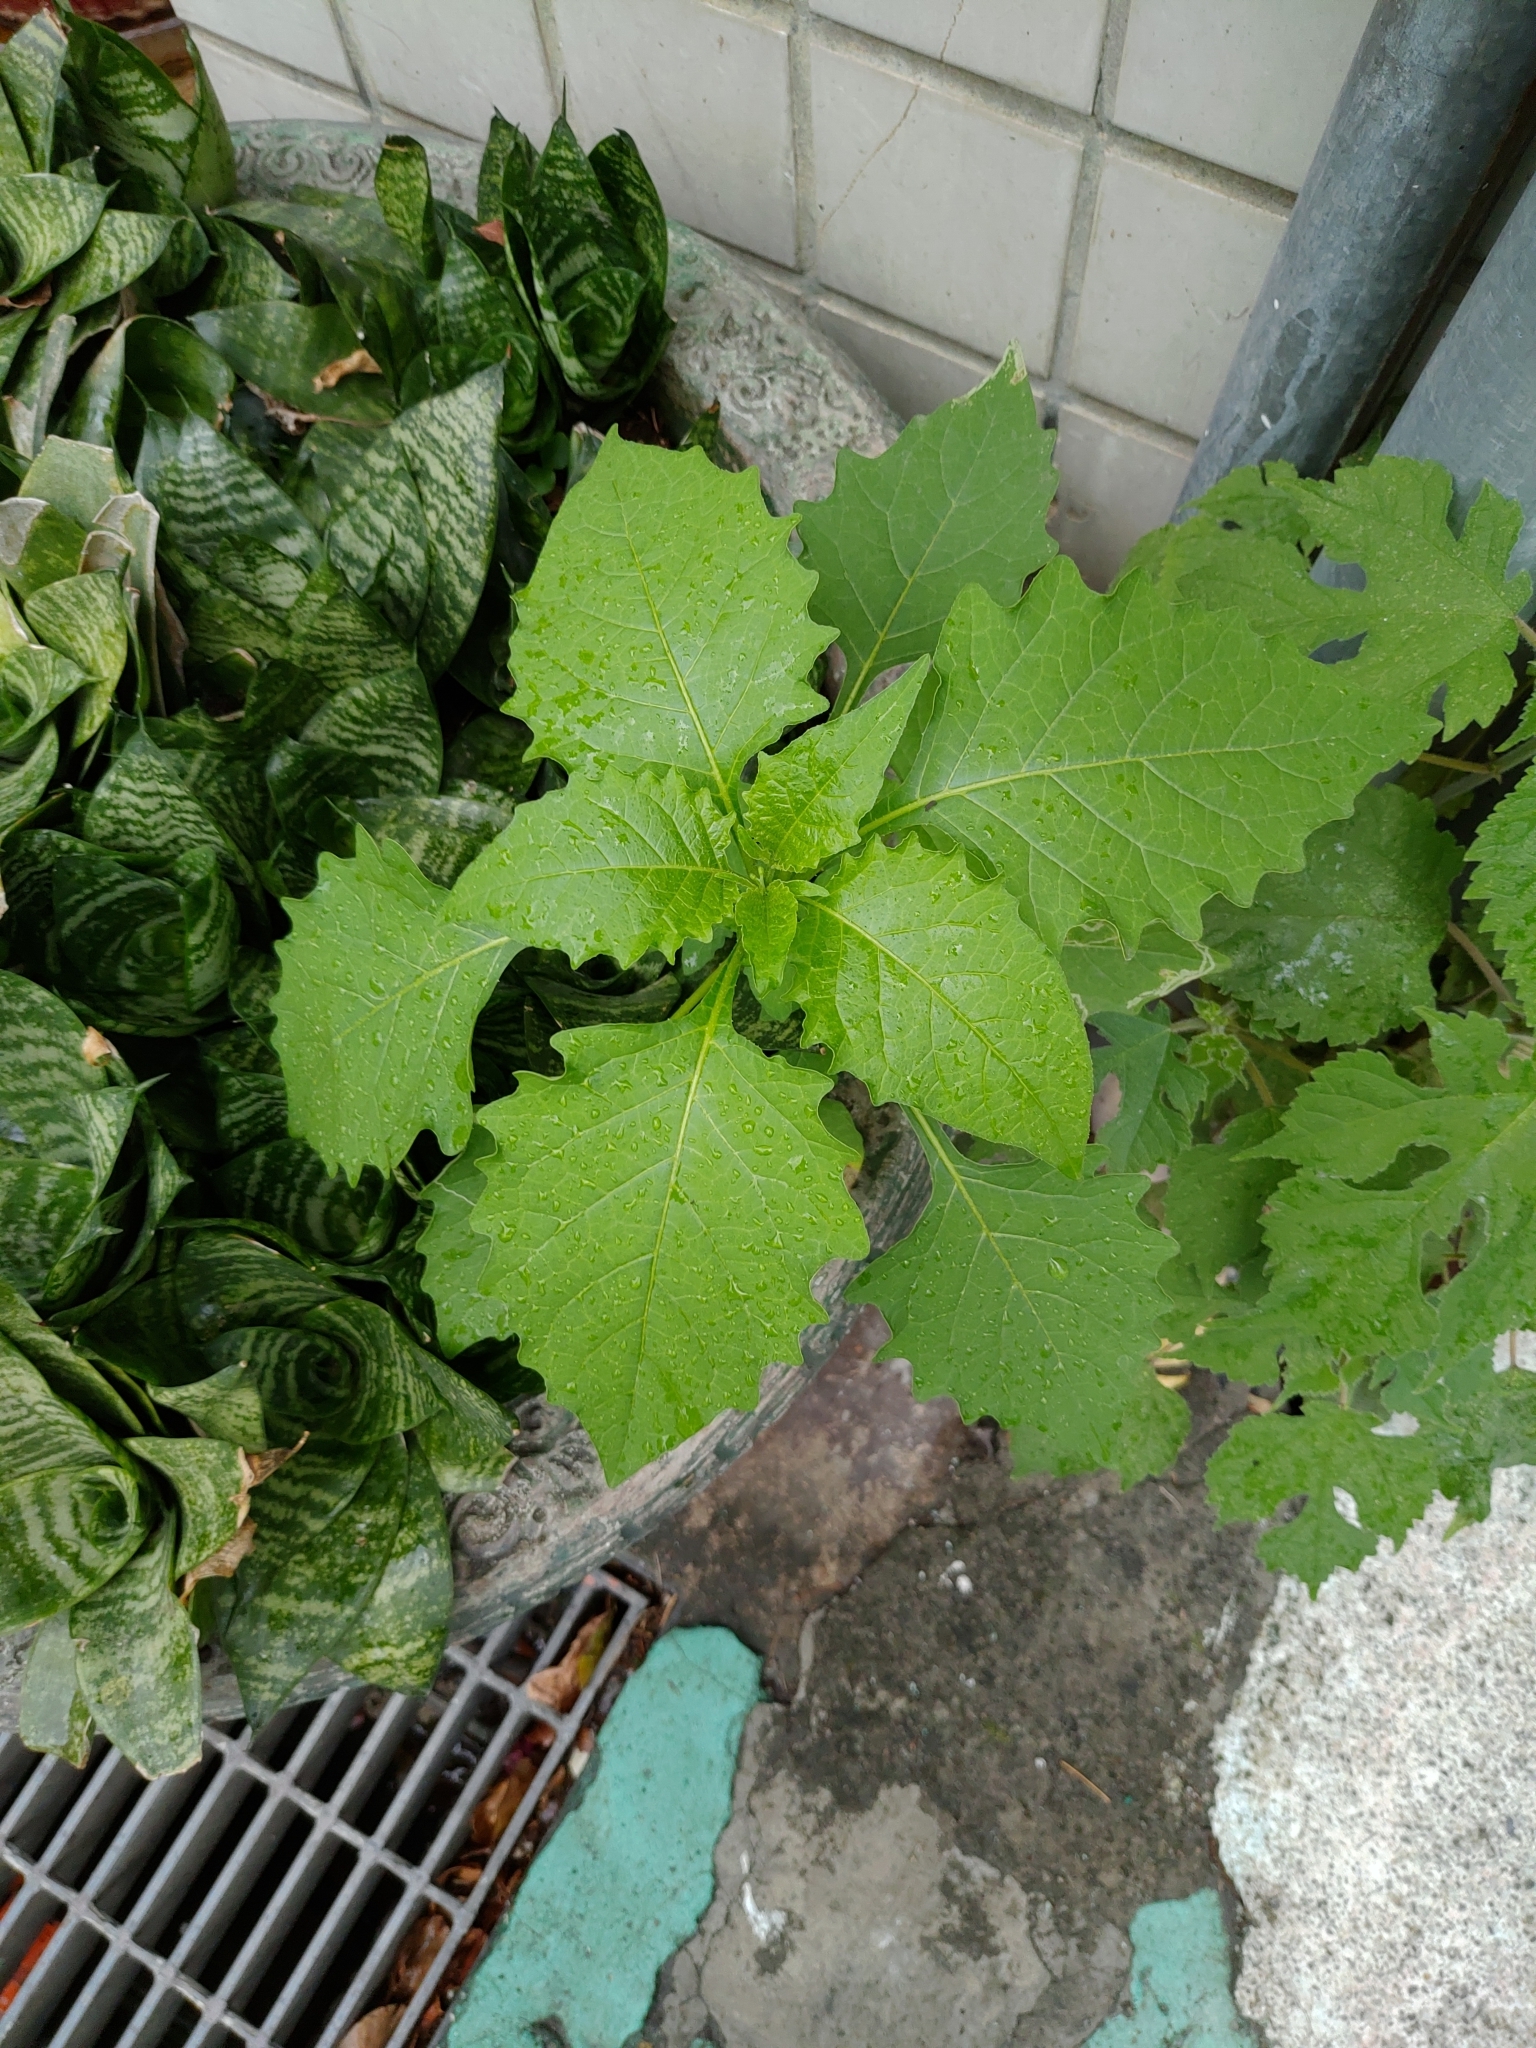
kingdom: Plantae
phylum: Tracheophyta
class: Magnoliopsida
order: Solanales
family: Solanaceae
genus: Solanum
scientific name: Solanum
